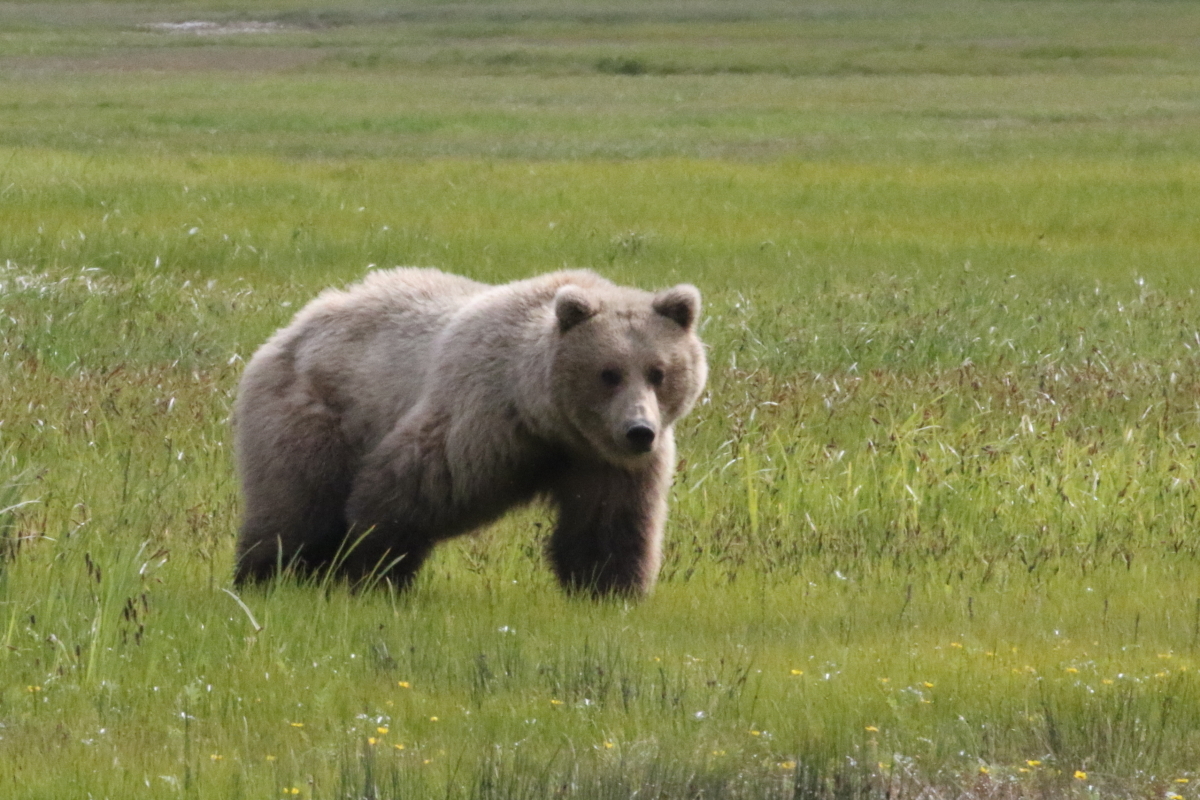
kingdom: Animalia
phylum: Chordata
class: Mammalia
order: Carnivora
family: Ursidae
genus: Ursus
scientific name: Ursus arctos
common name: Brown bear
